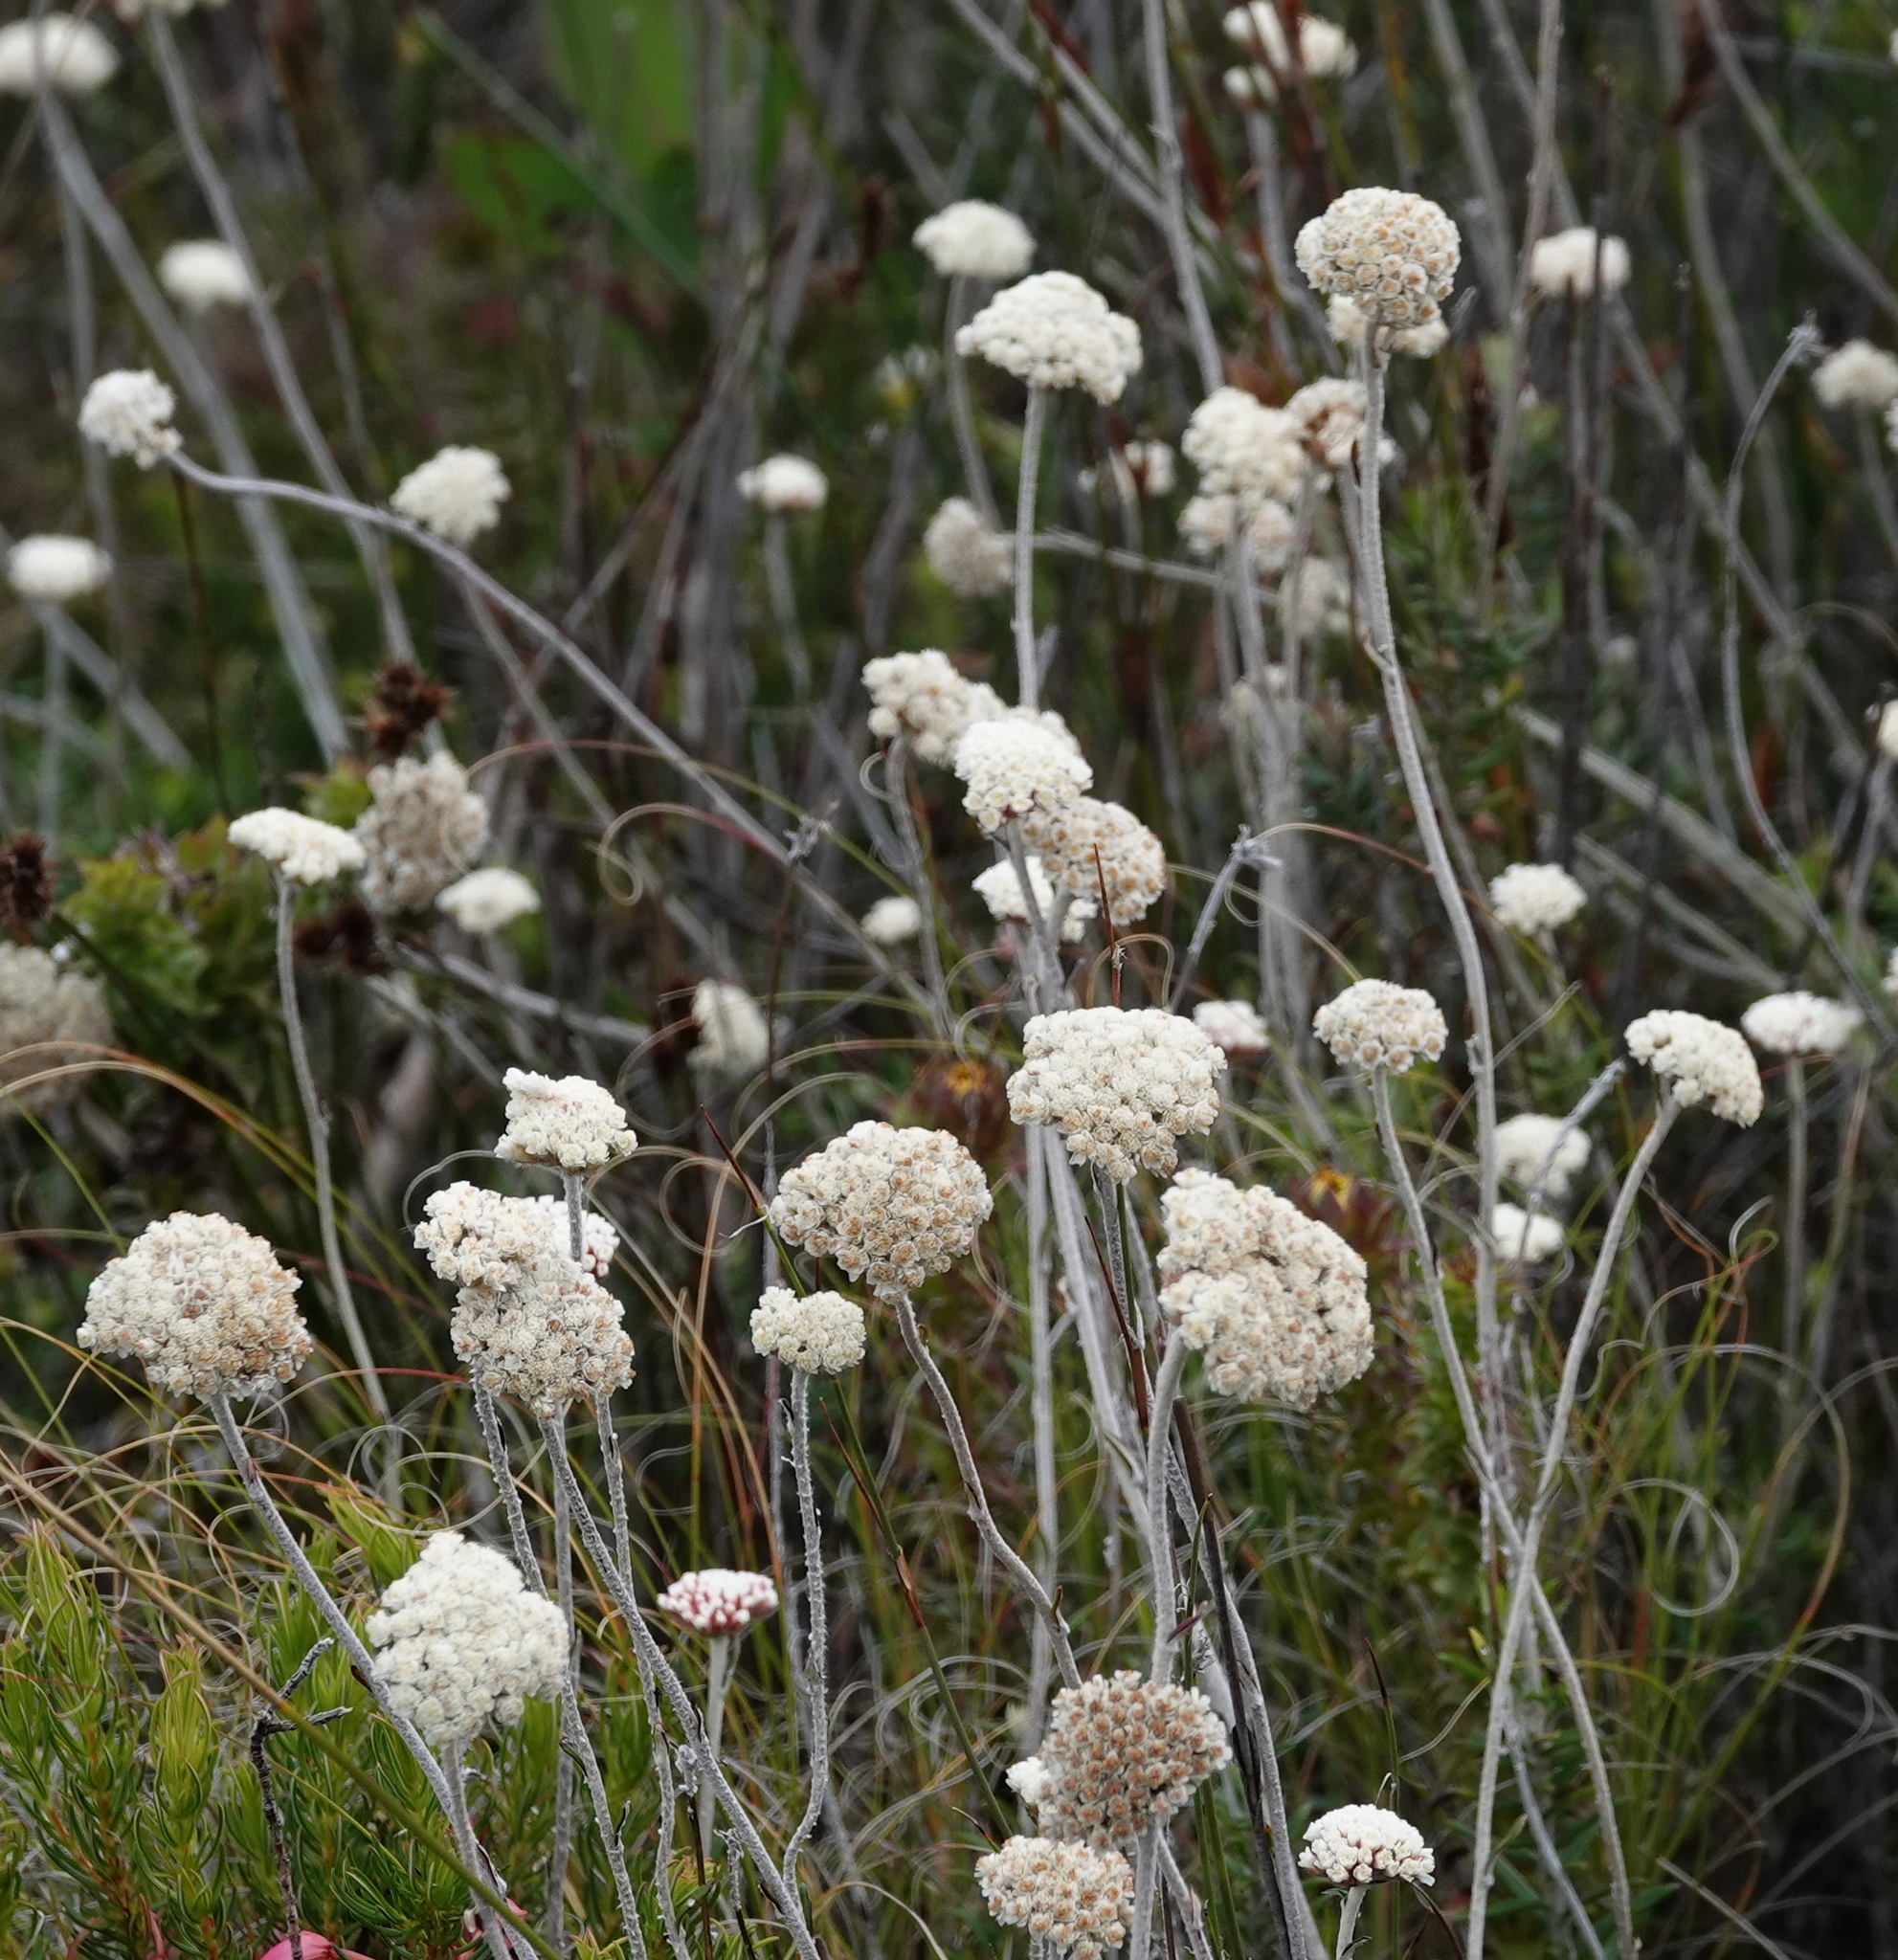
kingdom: Plantae
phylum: Tracheophyta
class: Magnoliopsida
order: Asterales
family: Asteraceae
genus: Anaxeton
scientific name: Anaxeton laeve
